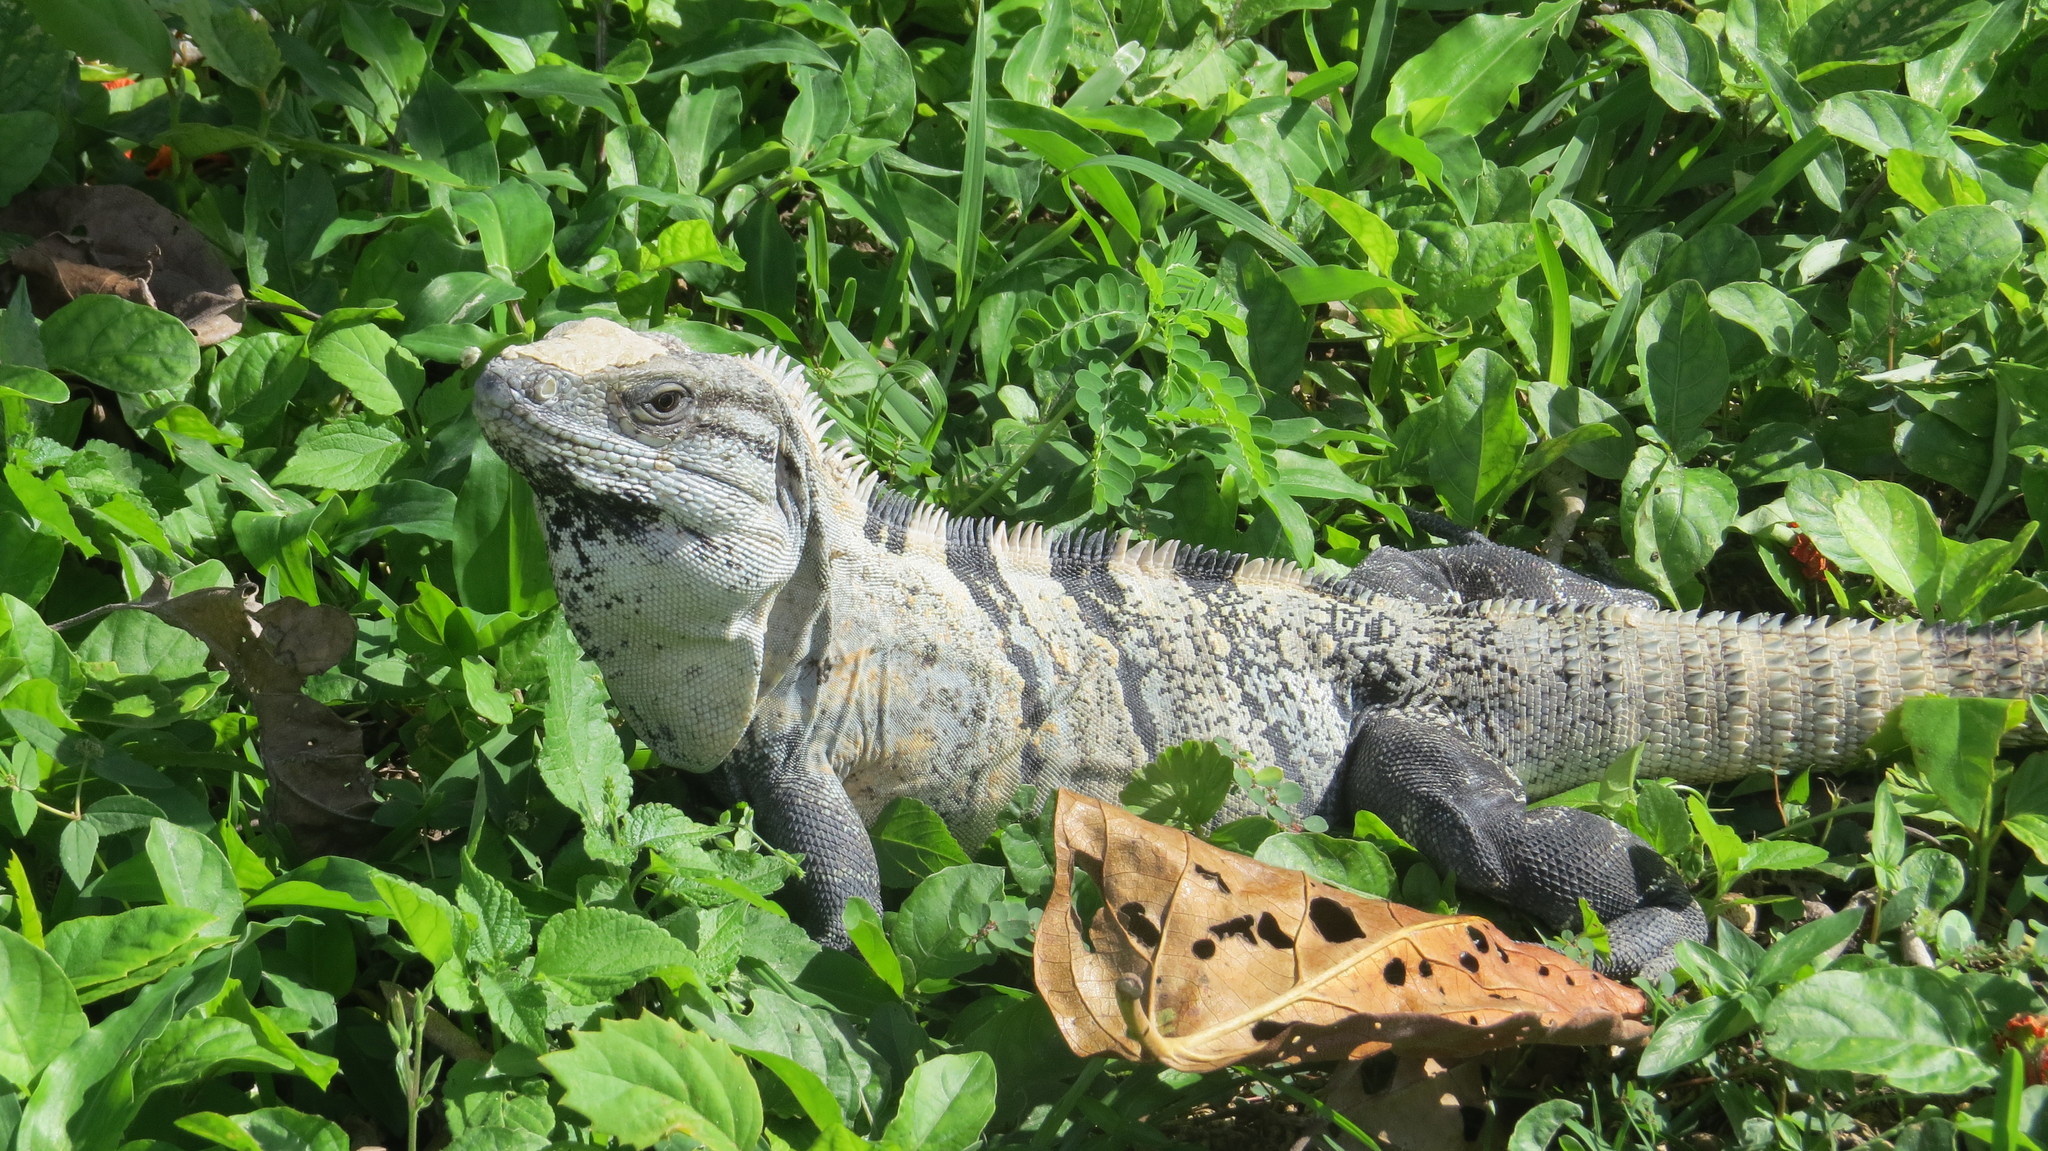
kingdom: Animalia
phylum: Chordata
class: Squamata
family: Iguanidae
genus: Ctenosaura
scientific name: Ctenosaura similis
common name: Black spiny-tailed iguana
